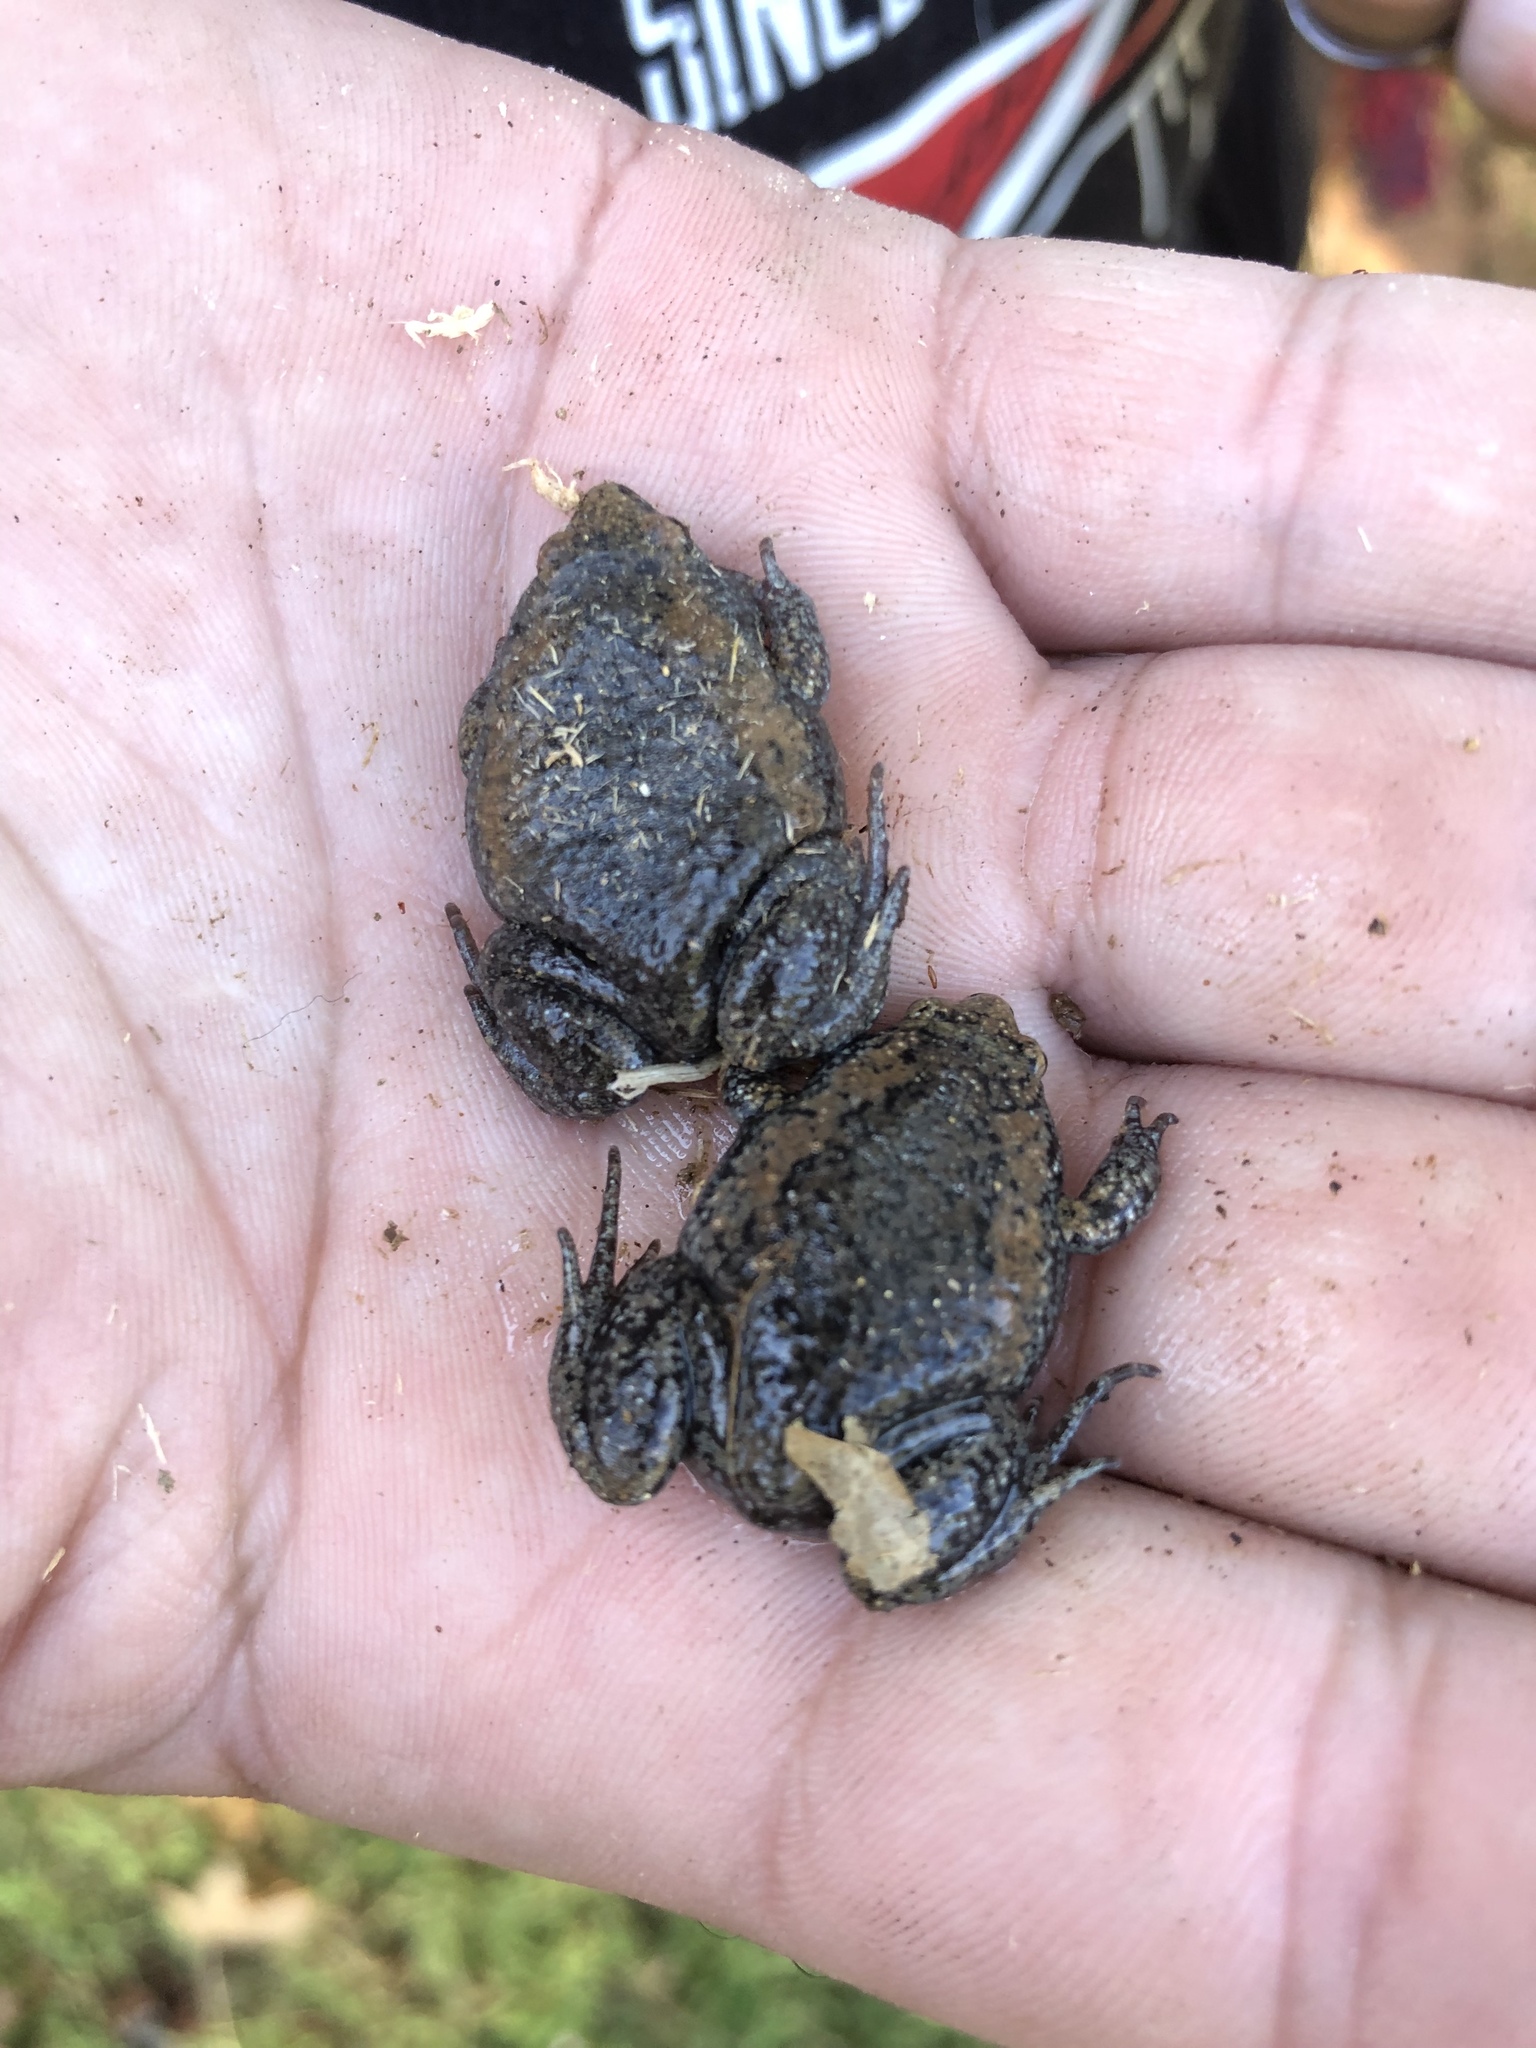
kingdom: Animalia
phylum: Chordata
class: Amphibia
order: Anura
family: Microhylidae
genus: Gastrophryne
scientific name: Gastrophryne carolinensis
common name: Eastern narrowmouth toad
